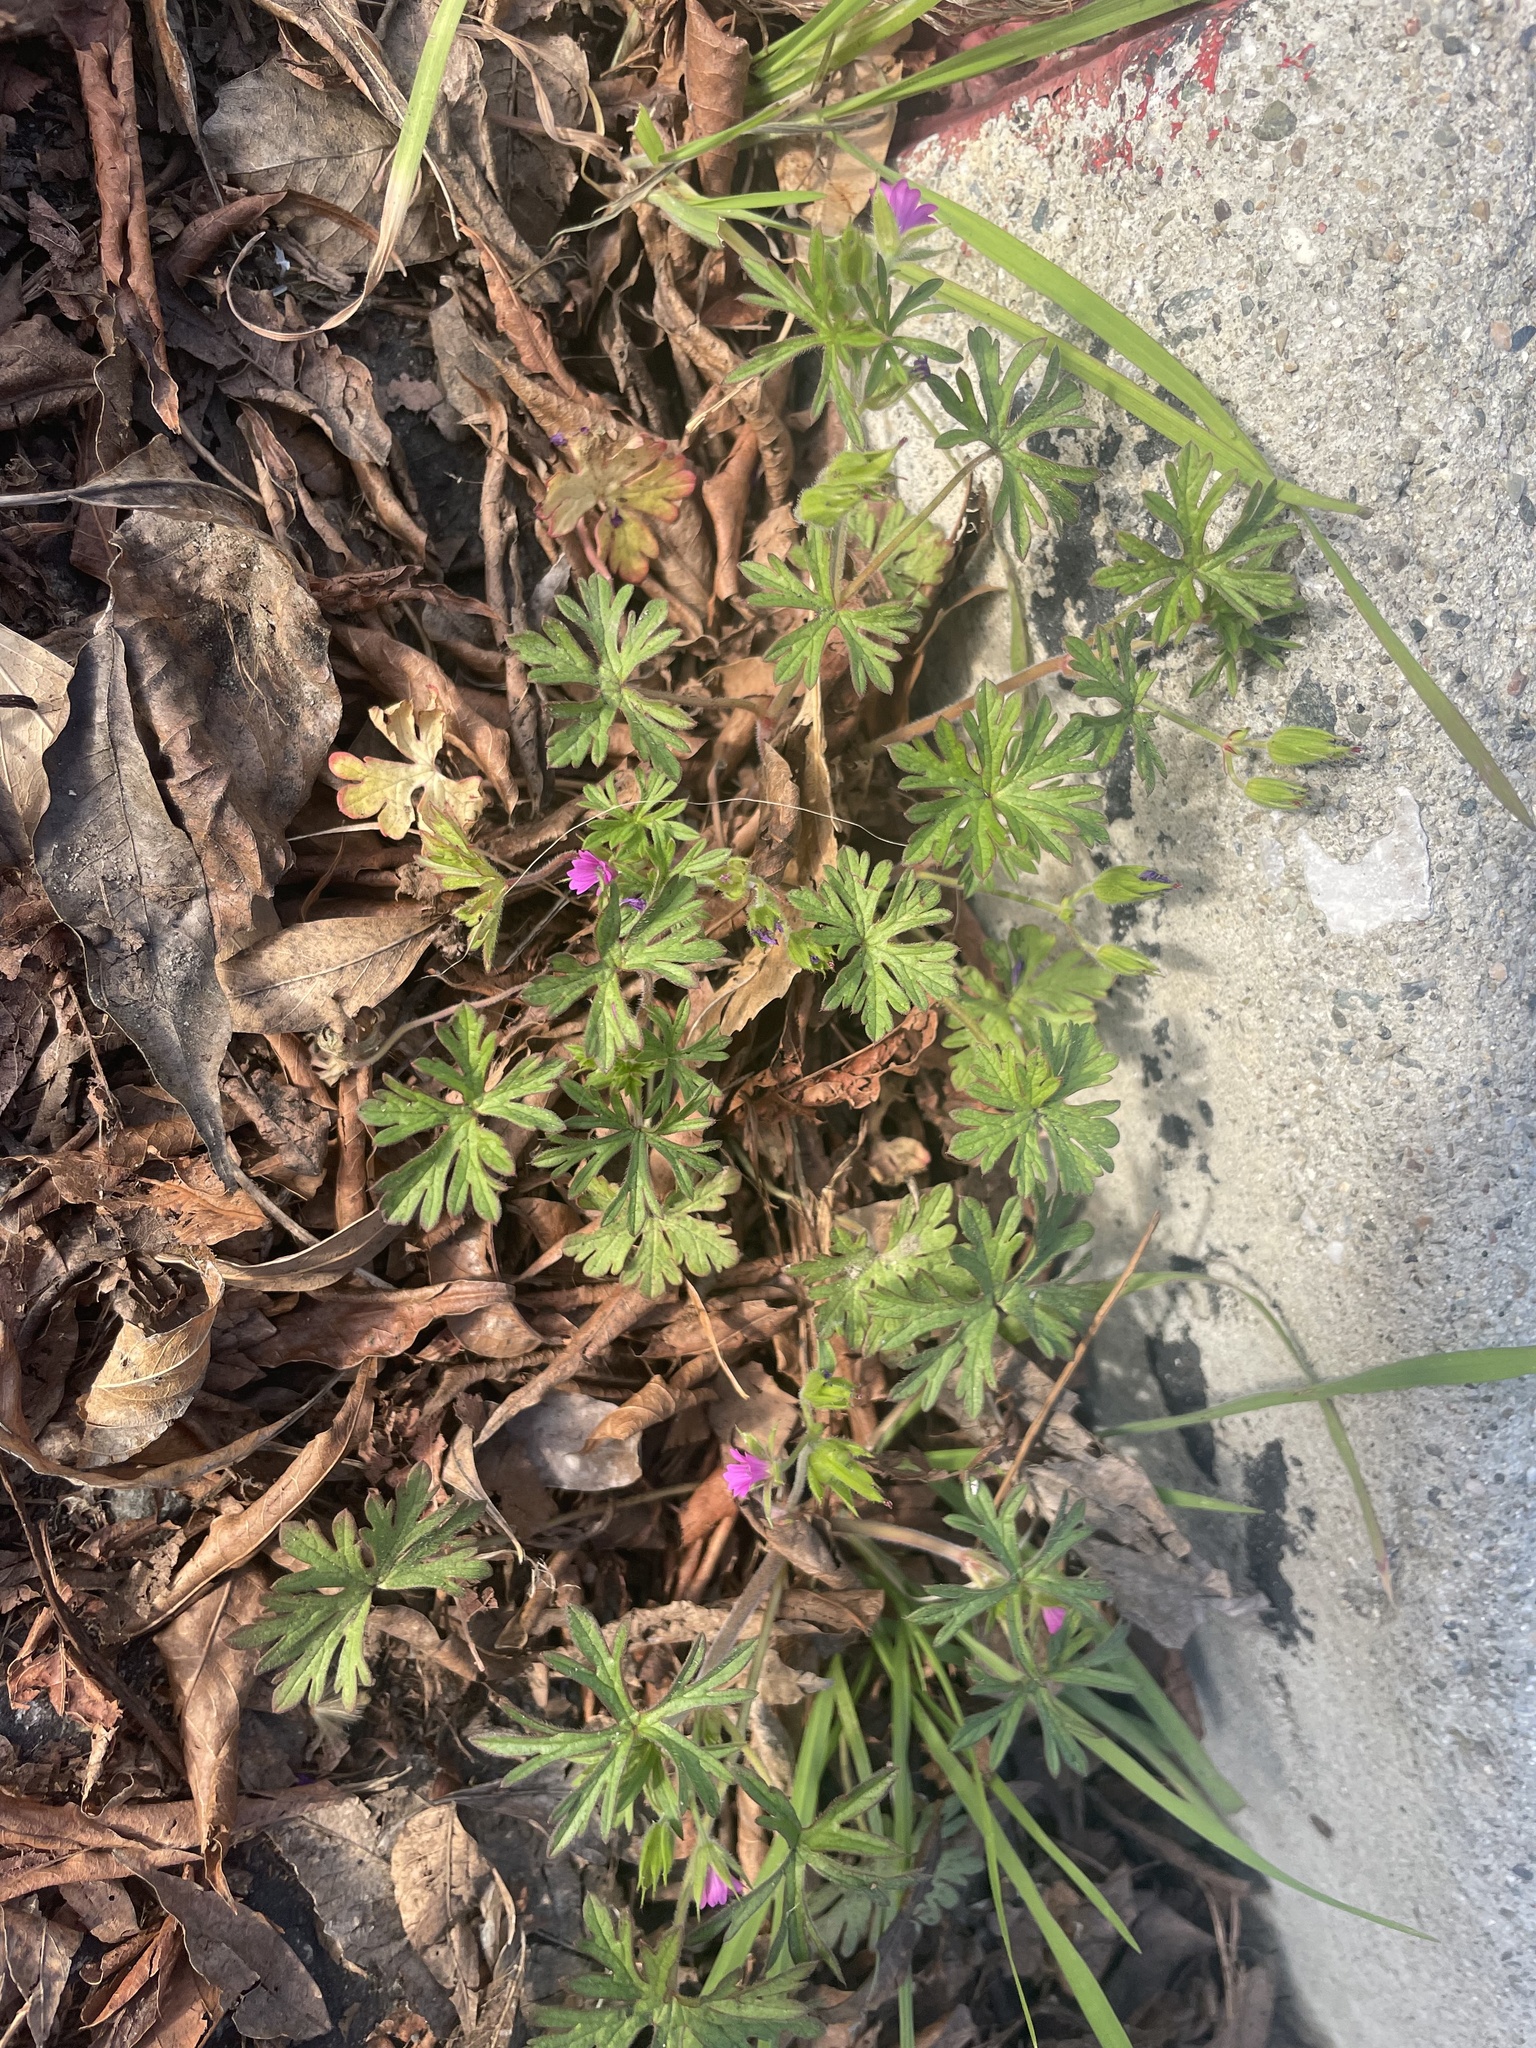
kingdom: Plantae
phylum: Tracheophyta
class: Magnoliopsida
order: Geraniales
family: Geraniaceae
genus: Geranium
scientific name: Geranium dissectum
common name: Cut-leaved crane's-bill
